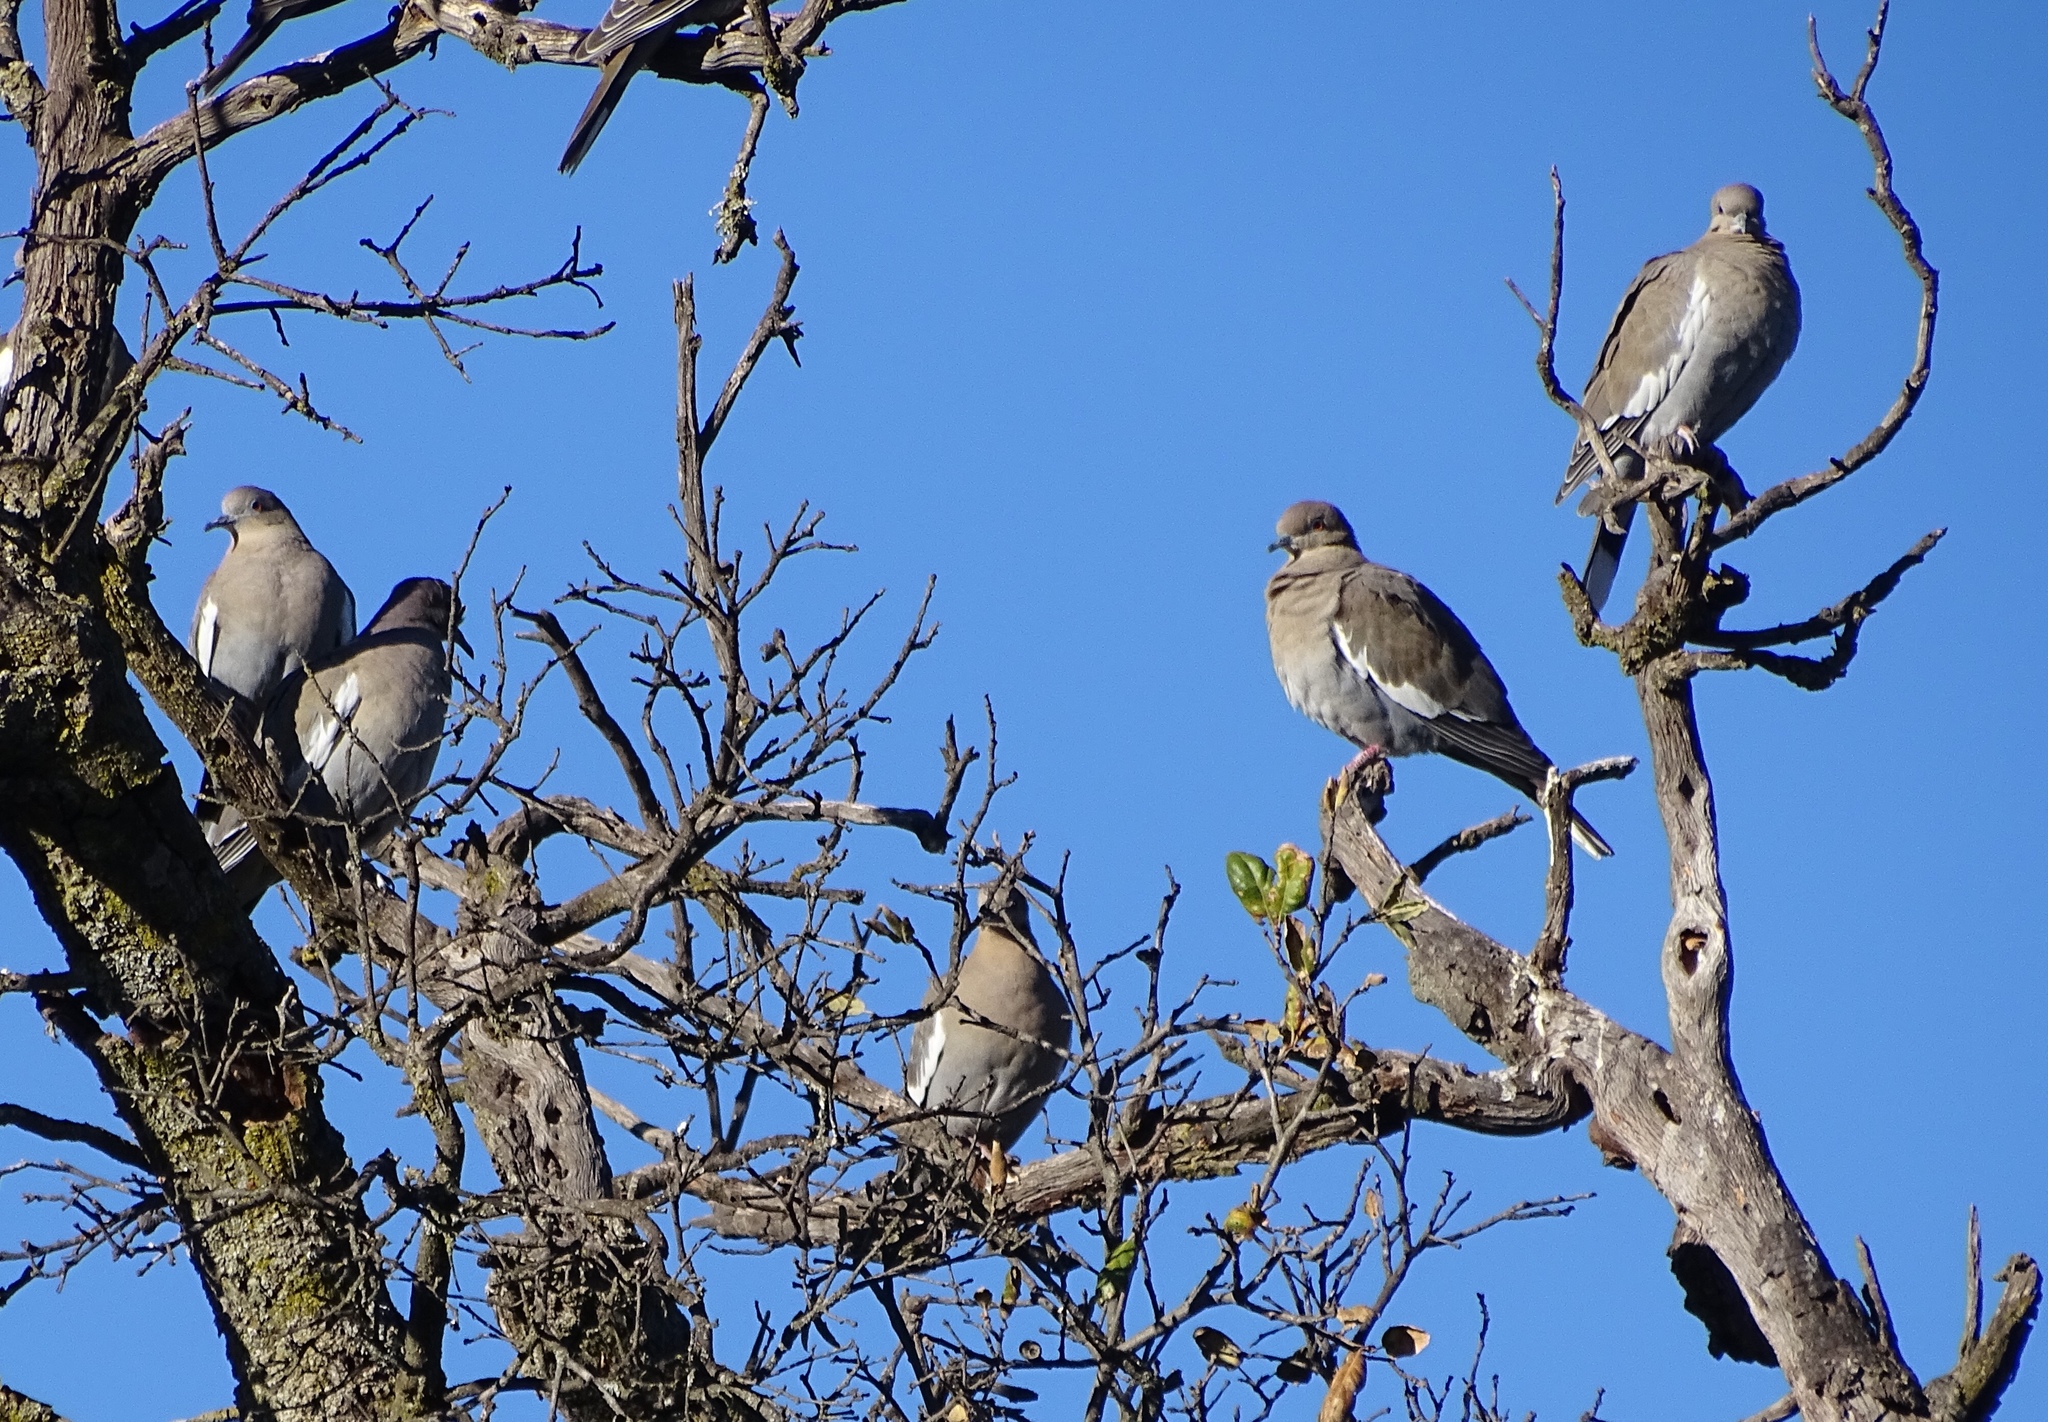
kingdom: Animalia
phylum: Chordata
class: Aves
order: Columbiformes
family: Columbidae
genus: Zenaida
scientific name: Zenaida asiatica
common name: White-winged dove
